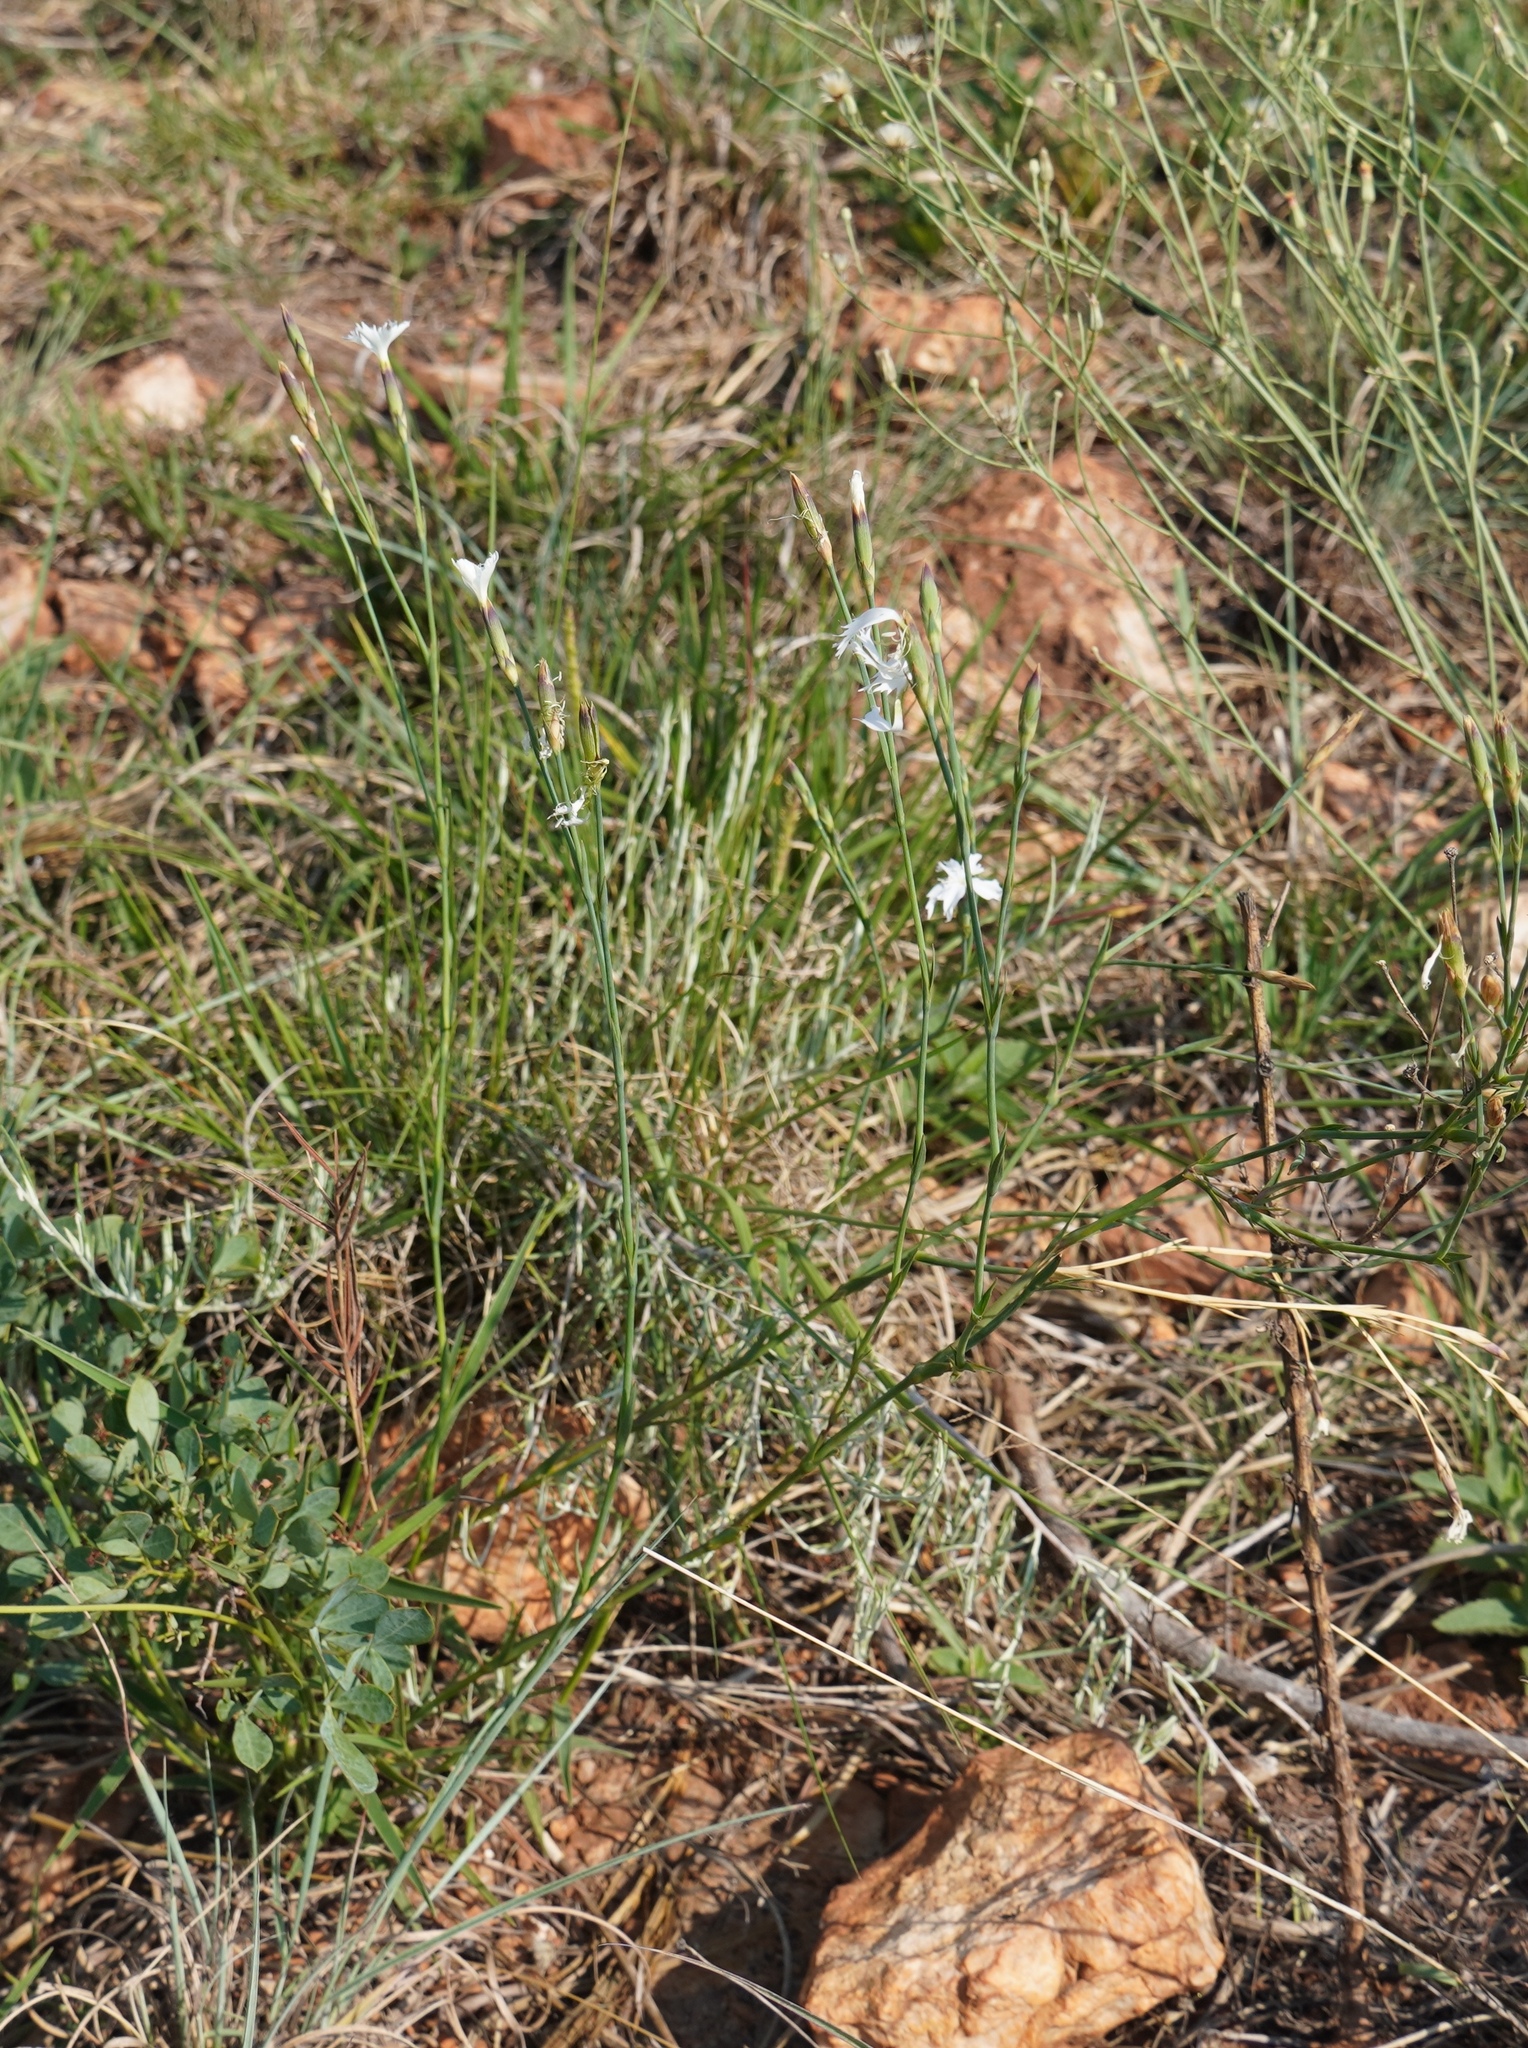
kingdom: Plantae
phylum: Tracheophyta
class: Magnoliopsida
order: Caryophyllales
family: Caryophyllaceae
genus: Dianthus
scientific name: Dianthus mooiensis
